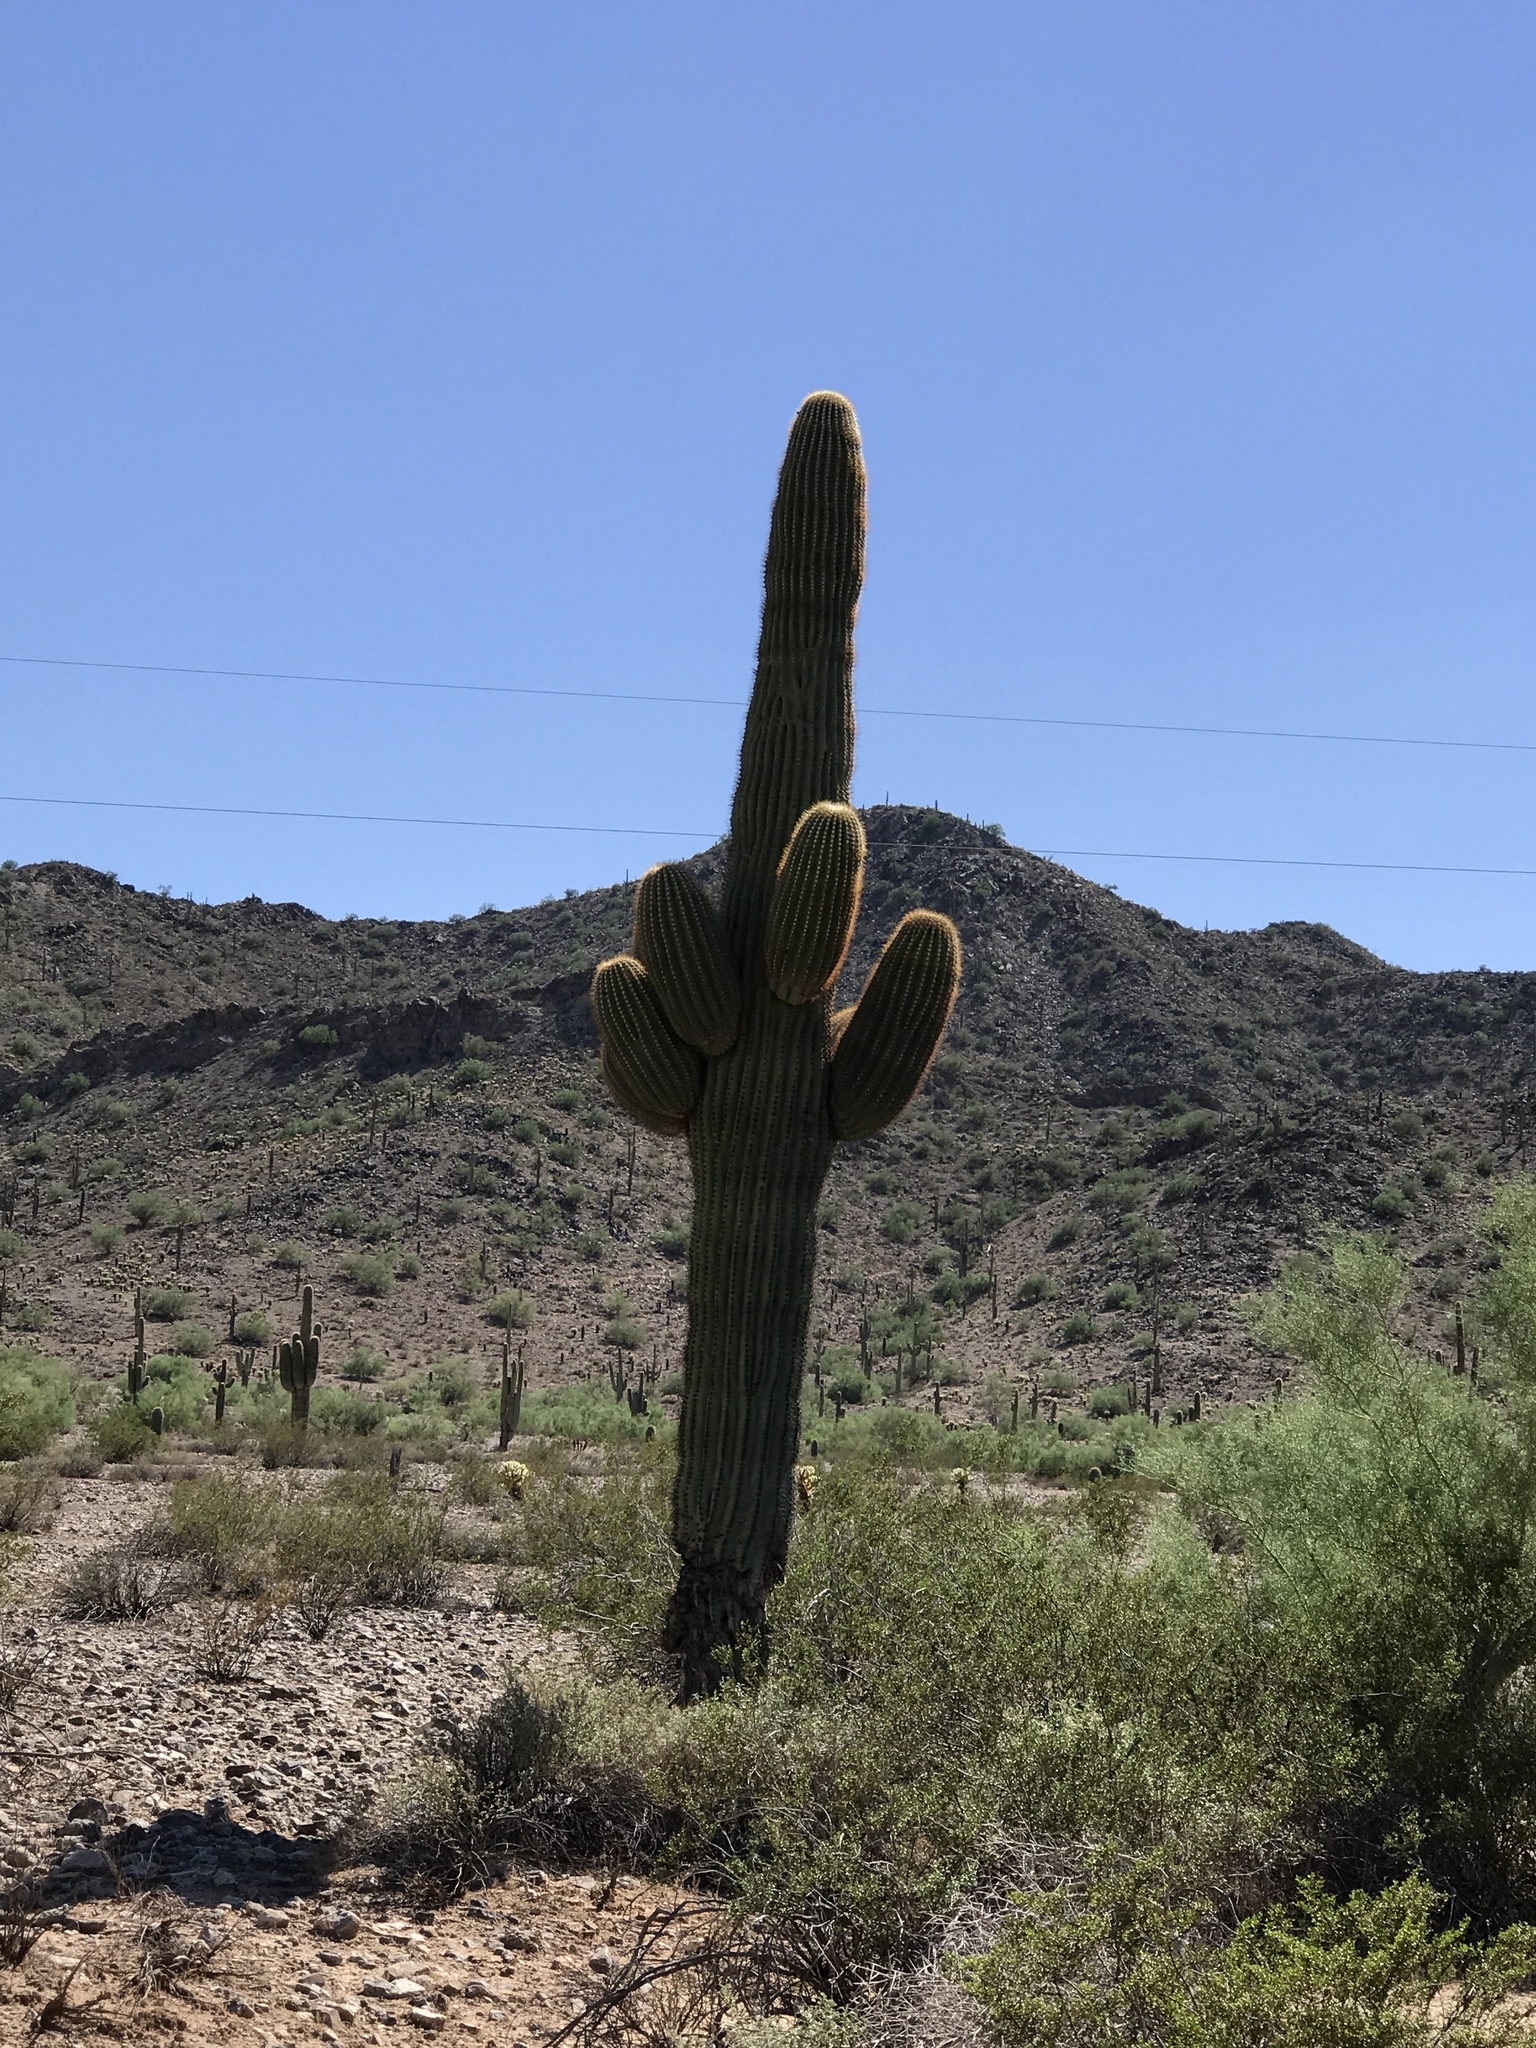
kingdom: Plantae
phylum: Tracheophyta
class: Magnoliopsida
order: Caryophyllales
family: Cactaceae
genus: Carnegiea
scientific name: Carnegiea gigantea
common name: Saguaro
